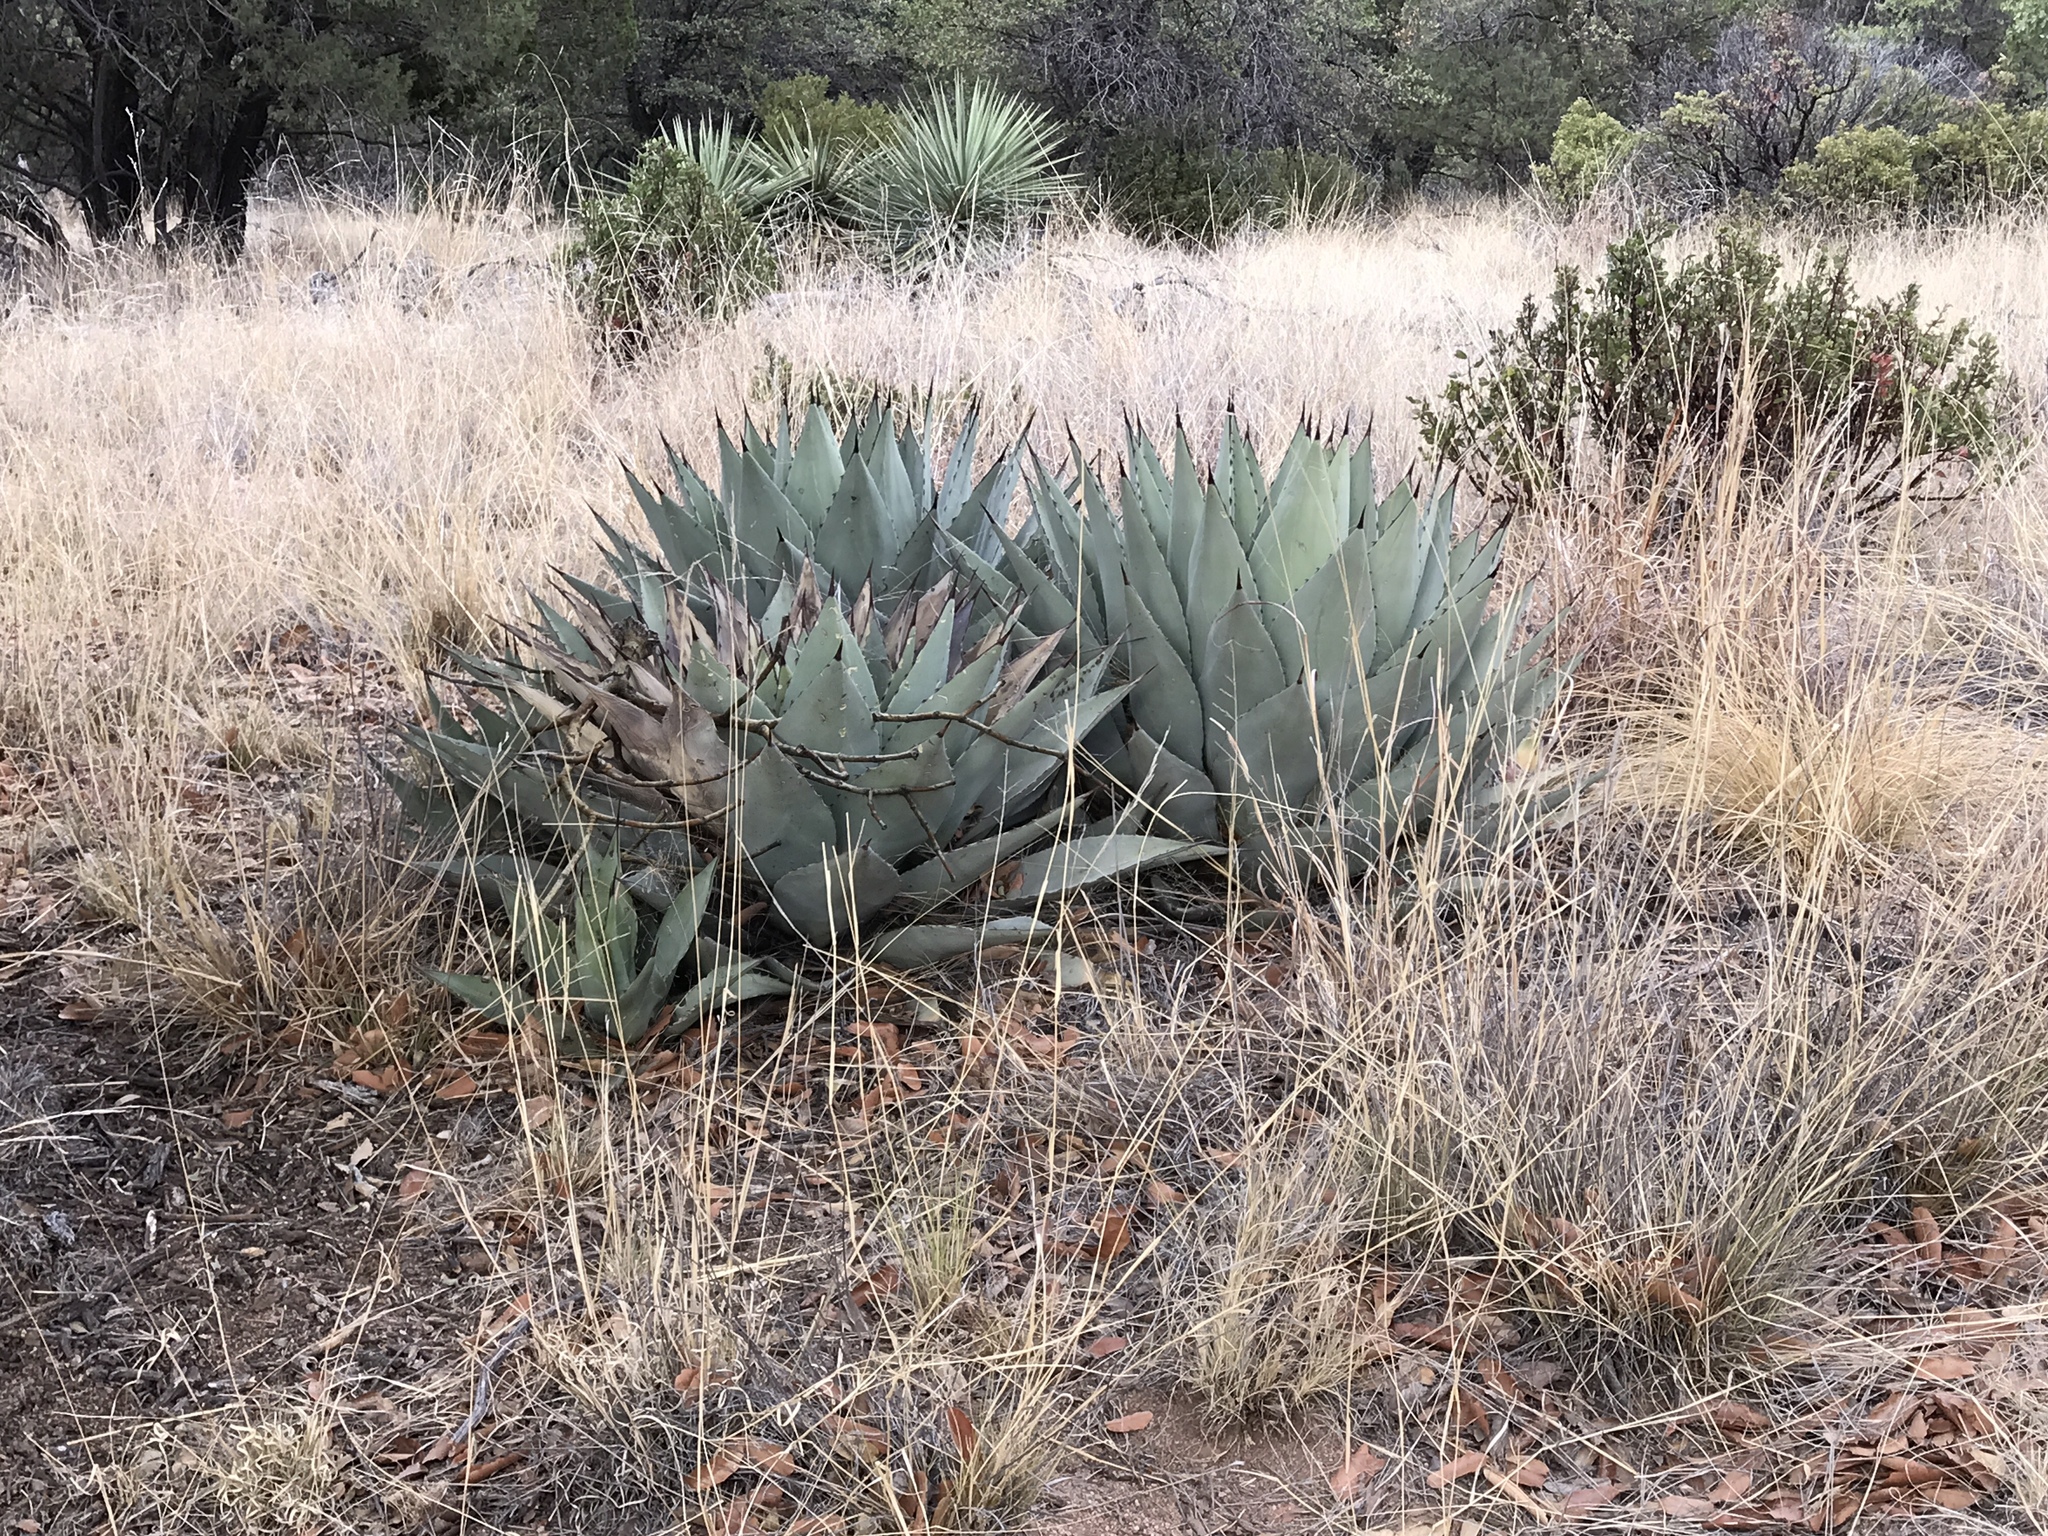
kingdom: Plantae
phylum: Tracheophyta
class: Liliopsida
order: Asparagales
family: Asparagaceae
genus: Agave
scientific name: Agave parryi
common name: Parry's agave
